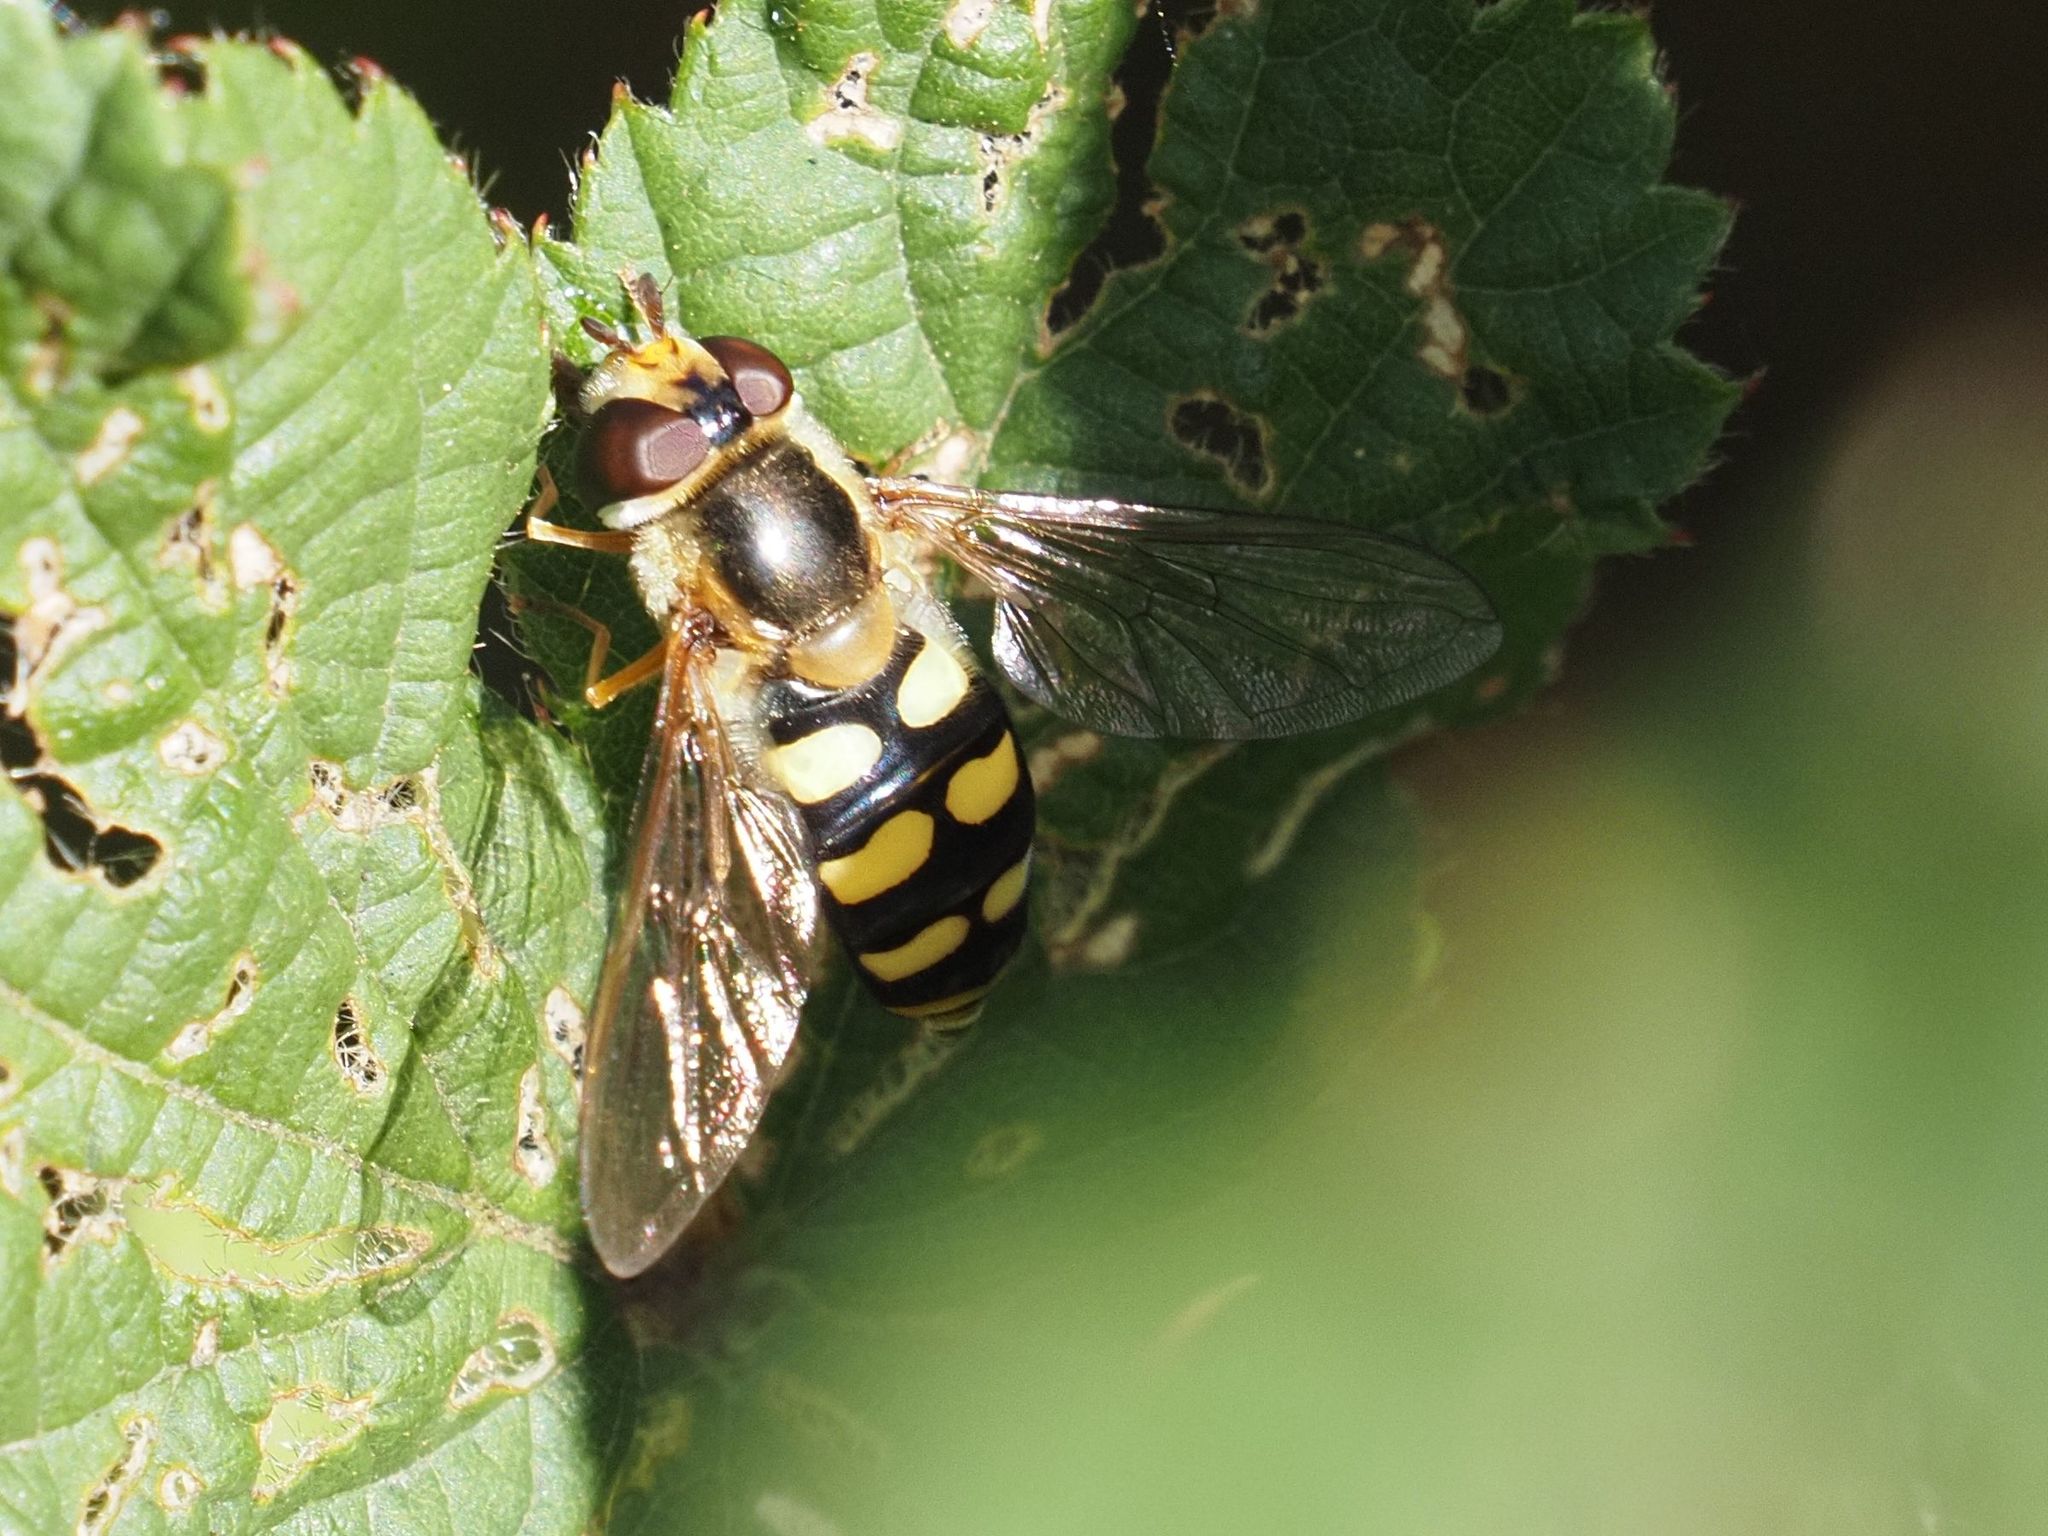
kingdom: Animalia
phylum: Arthropoda
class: Insecta
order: Diptera
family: Syrphidae
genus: Eupeodes
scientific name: Eupeodes luniger
